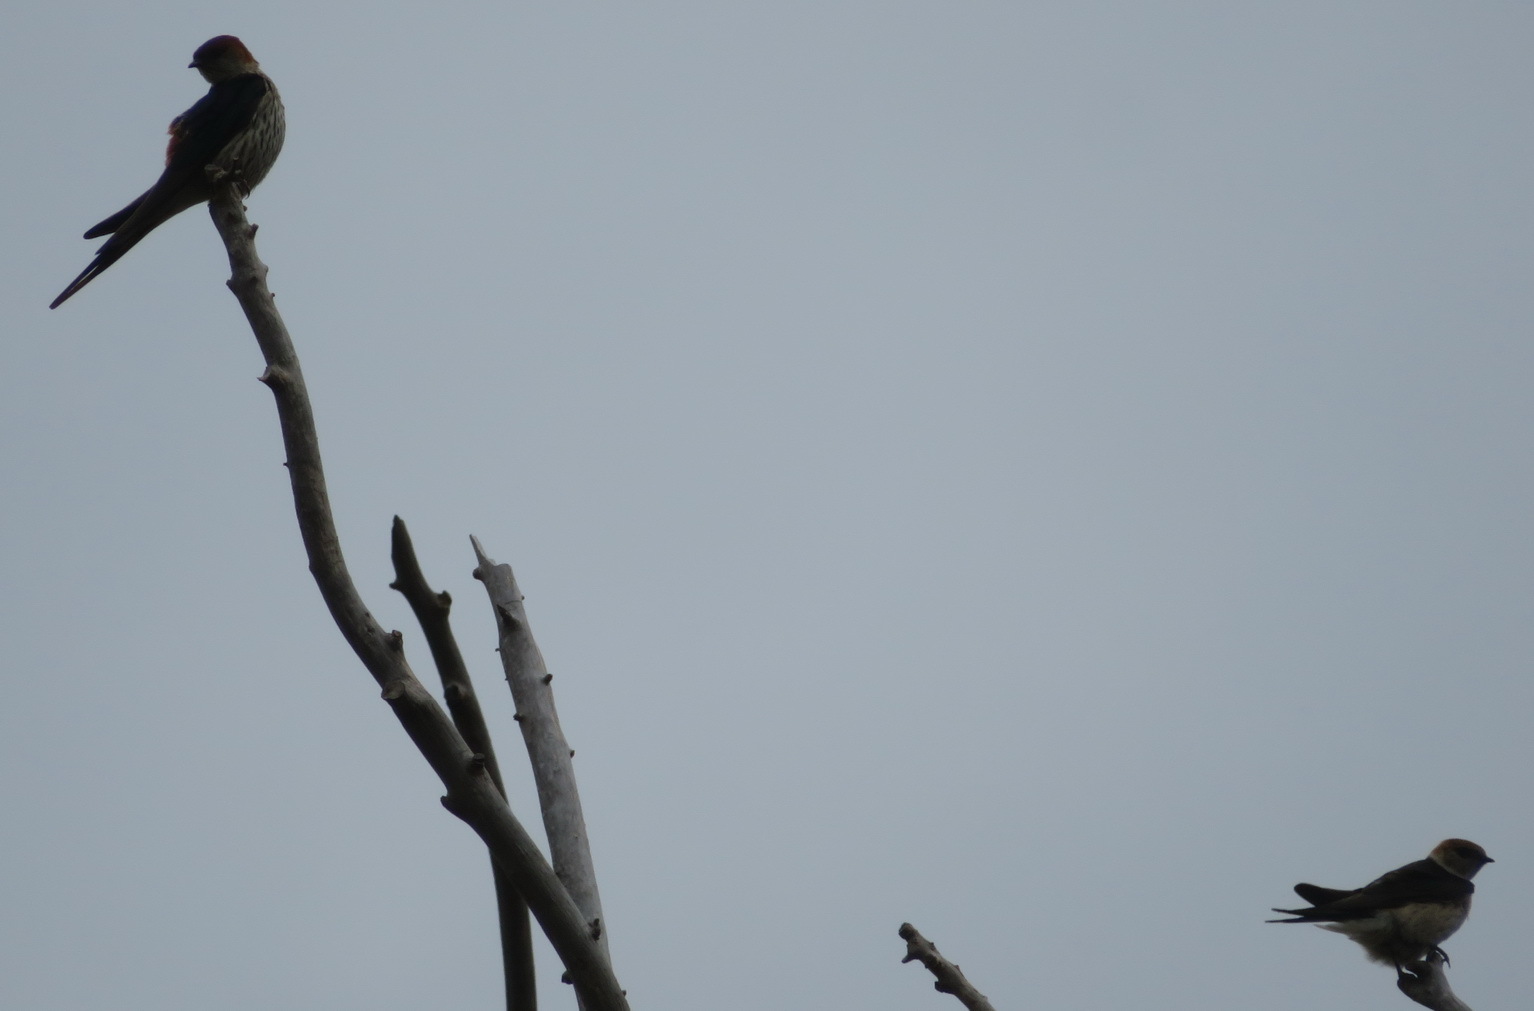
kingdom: Animalia
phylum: Chordata
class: Aves
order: Passeriformes
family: Hirundinidae
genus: Cecropis
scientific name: Cecropis cucullata
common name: Greater striped-swallow
